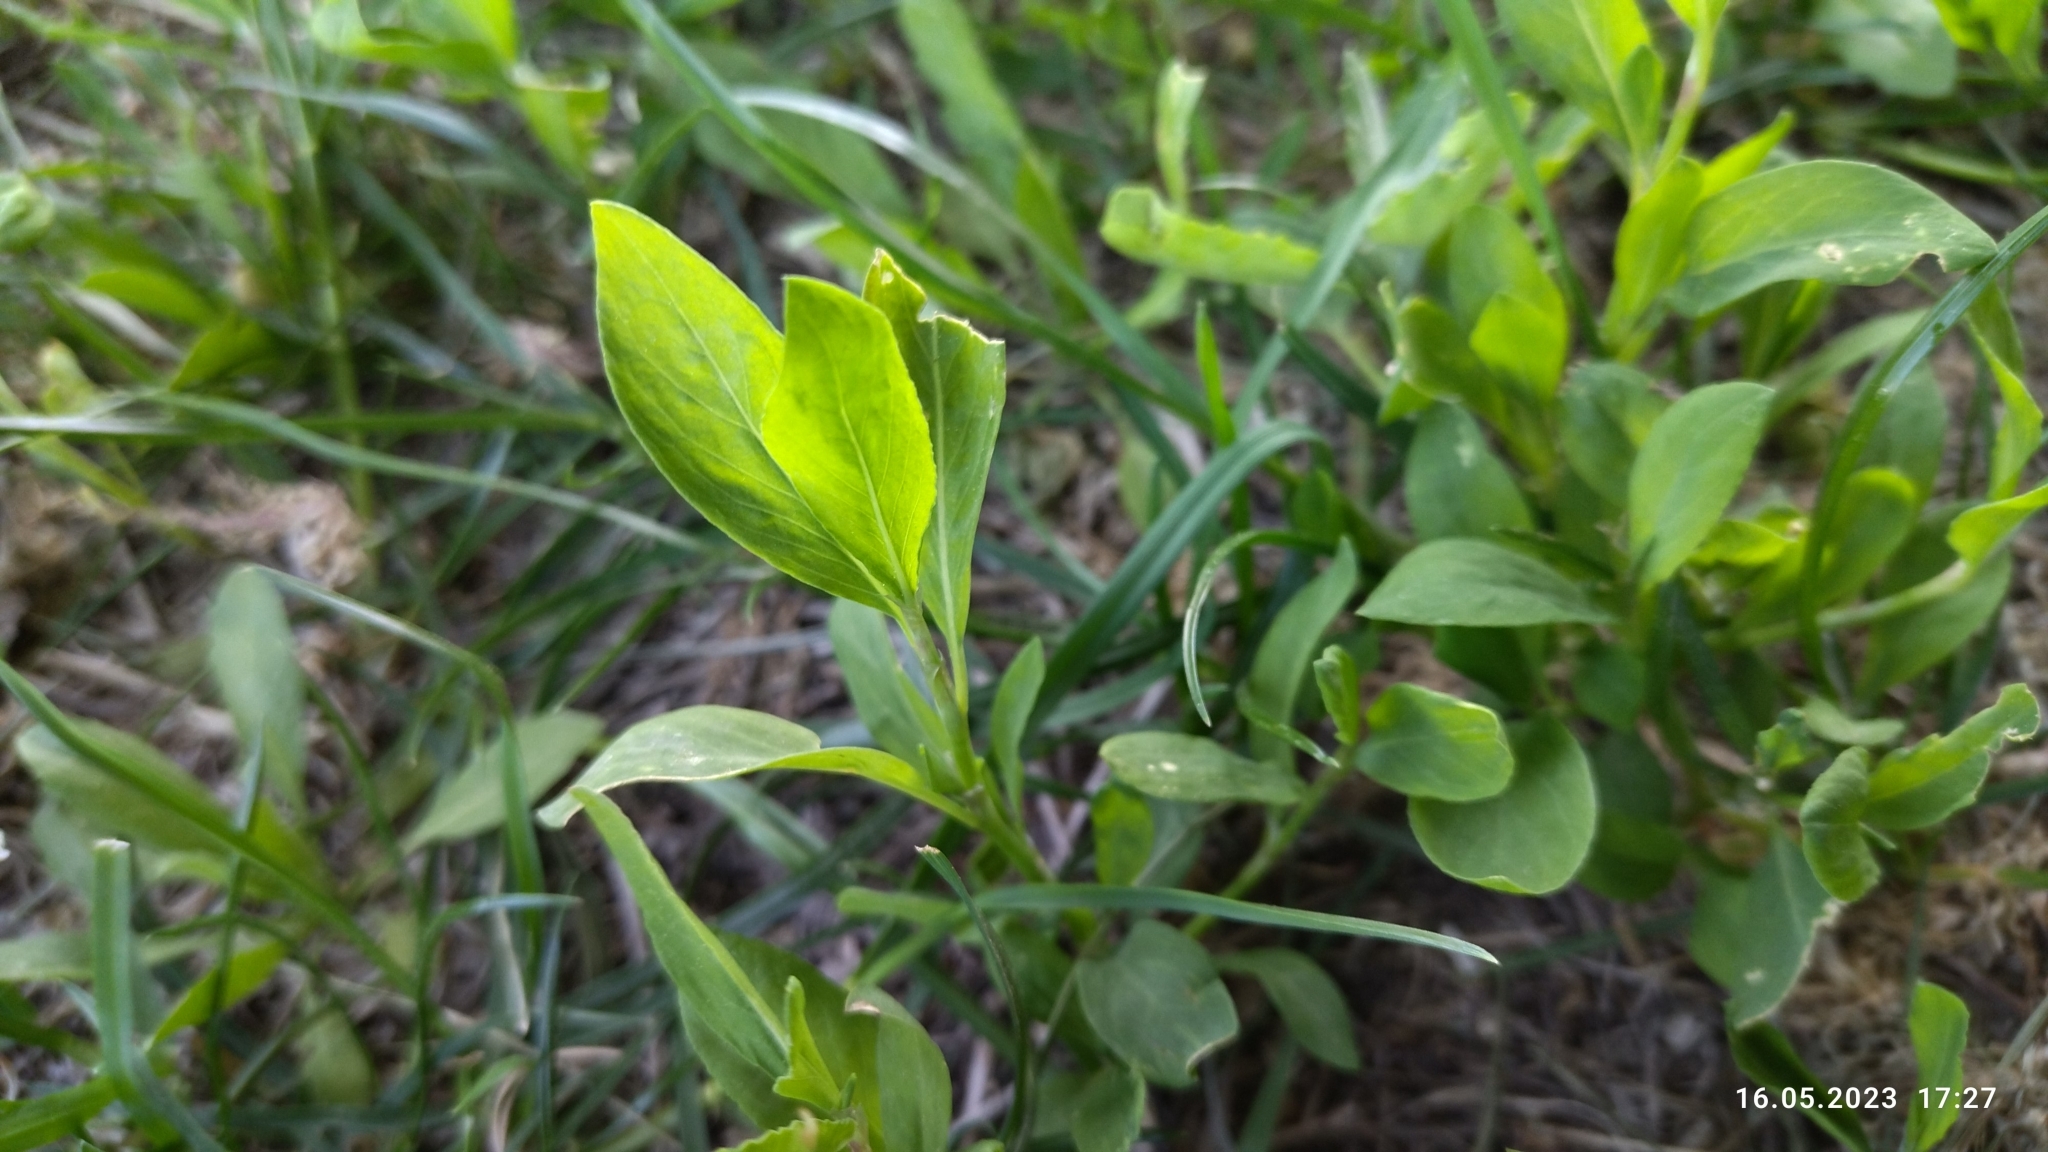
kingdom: Plantae
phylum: Tracheophyta
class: Magnoliopsida
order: Caryophyllales
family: Polygonaceae
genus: Polygonum
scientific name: Polygonum
